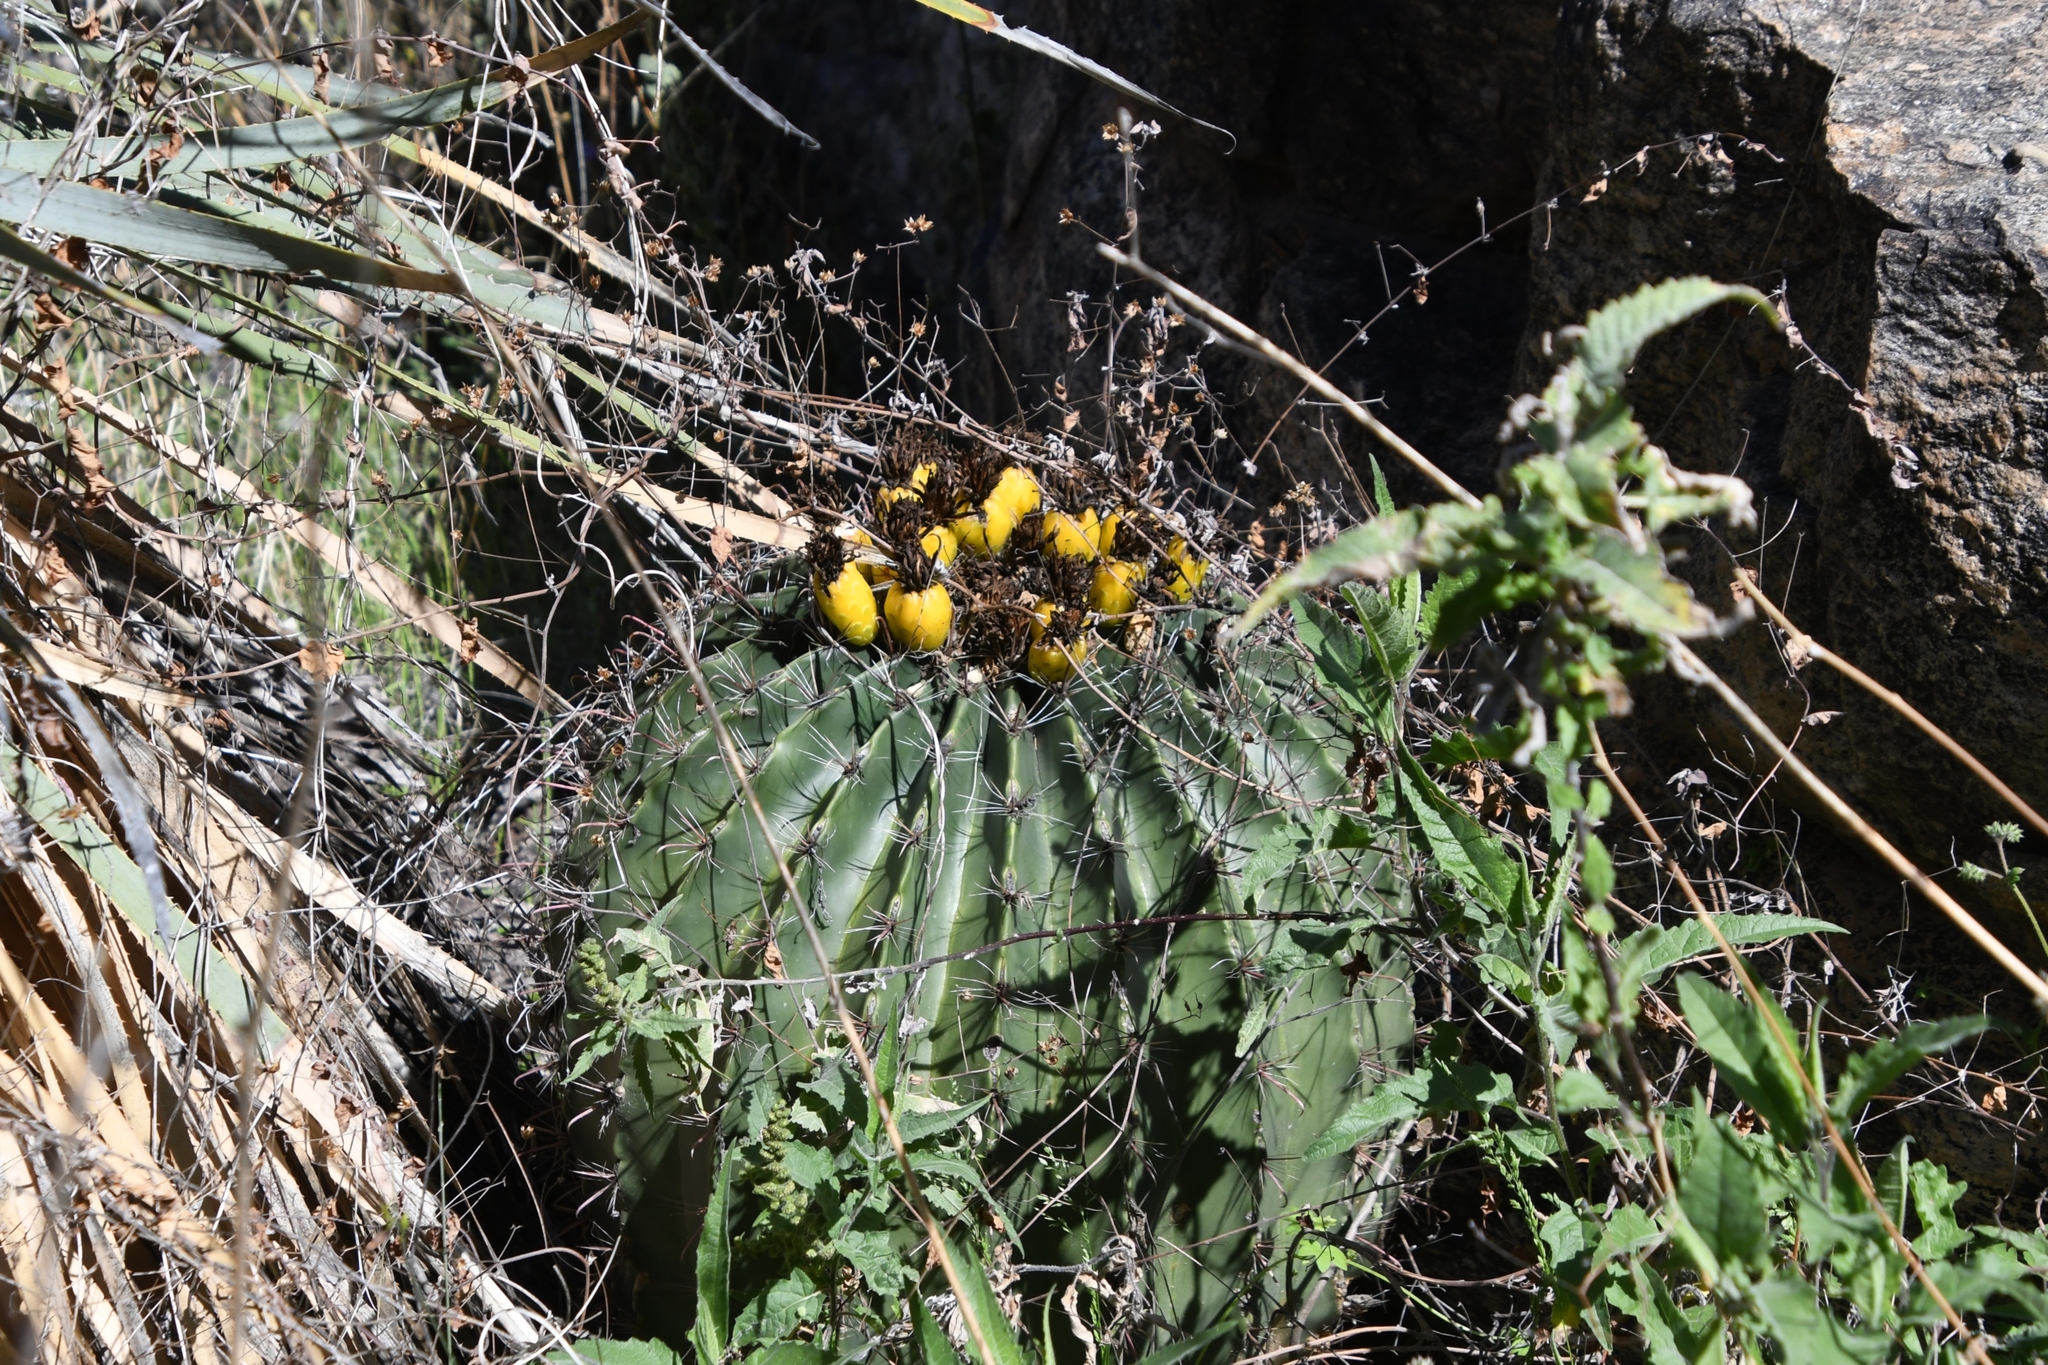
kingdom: Plantae
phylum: Tracheophyta
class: Magnoliopsida
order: Caryophyllales
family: Cactaceae
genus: Ferocactus
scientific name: Ferocactus wislizeni
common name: Candy barrel cactus
